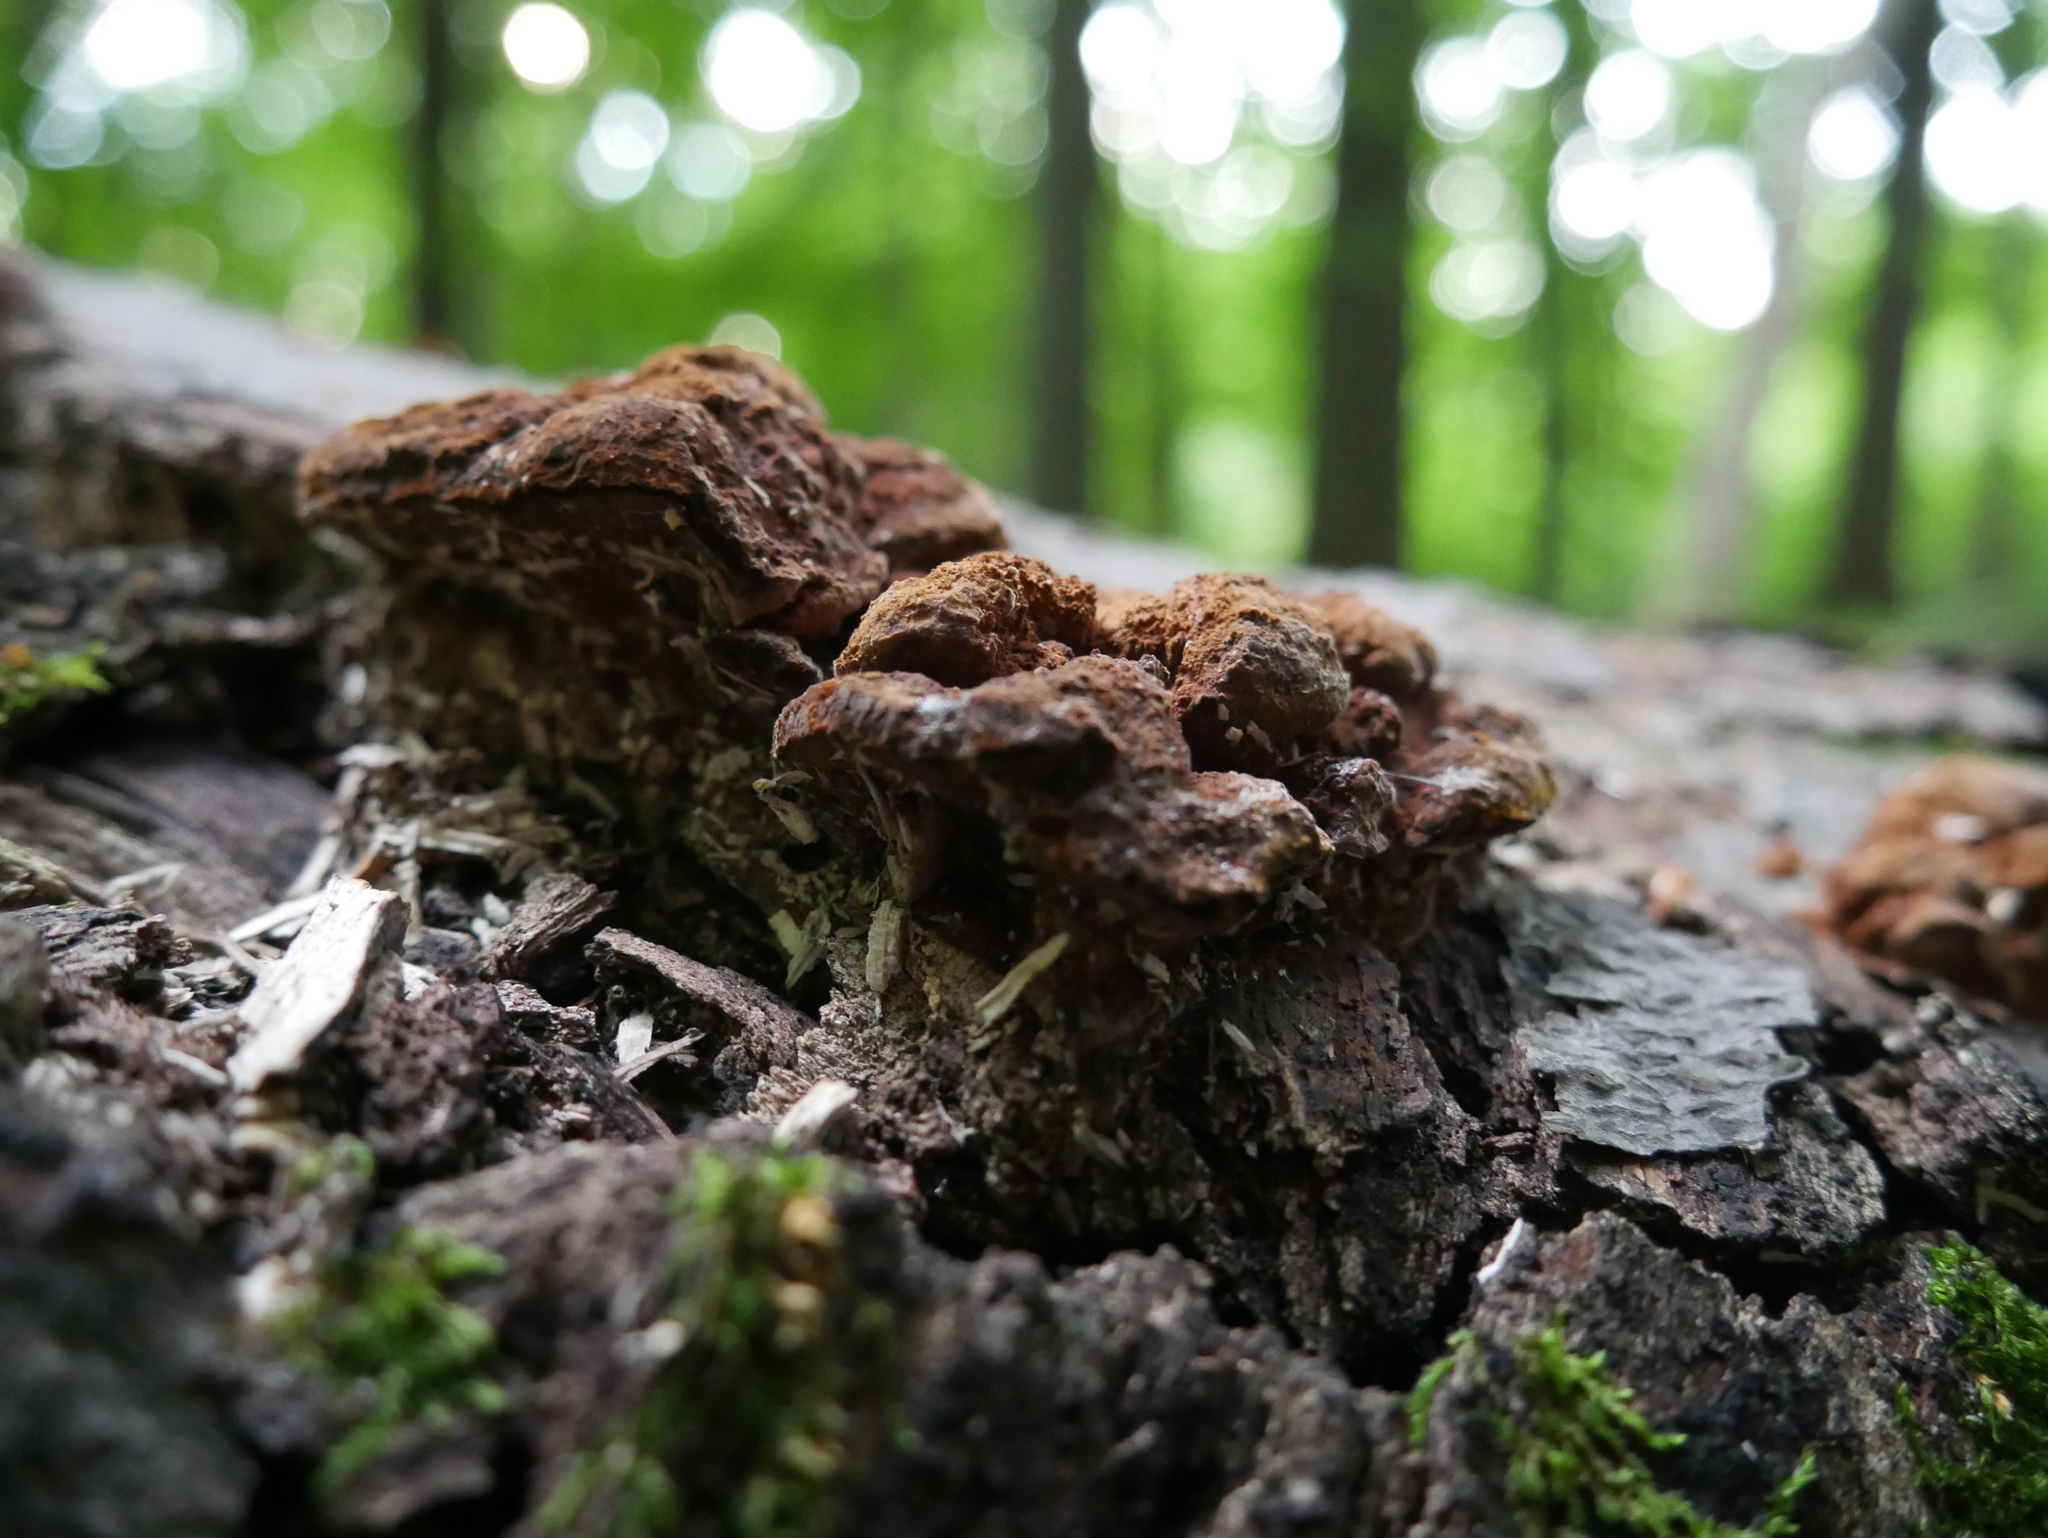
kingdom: Fungi
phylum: Basidiomycota
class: Agaricomycetes
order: Hymenochaetales
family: Hymenochaetaceae
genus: Phellinus
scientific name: Phellinus gilvus
